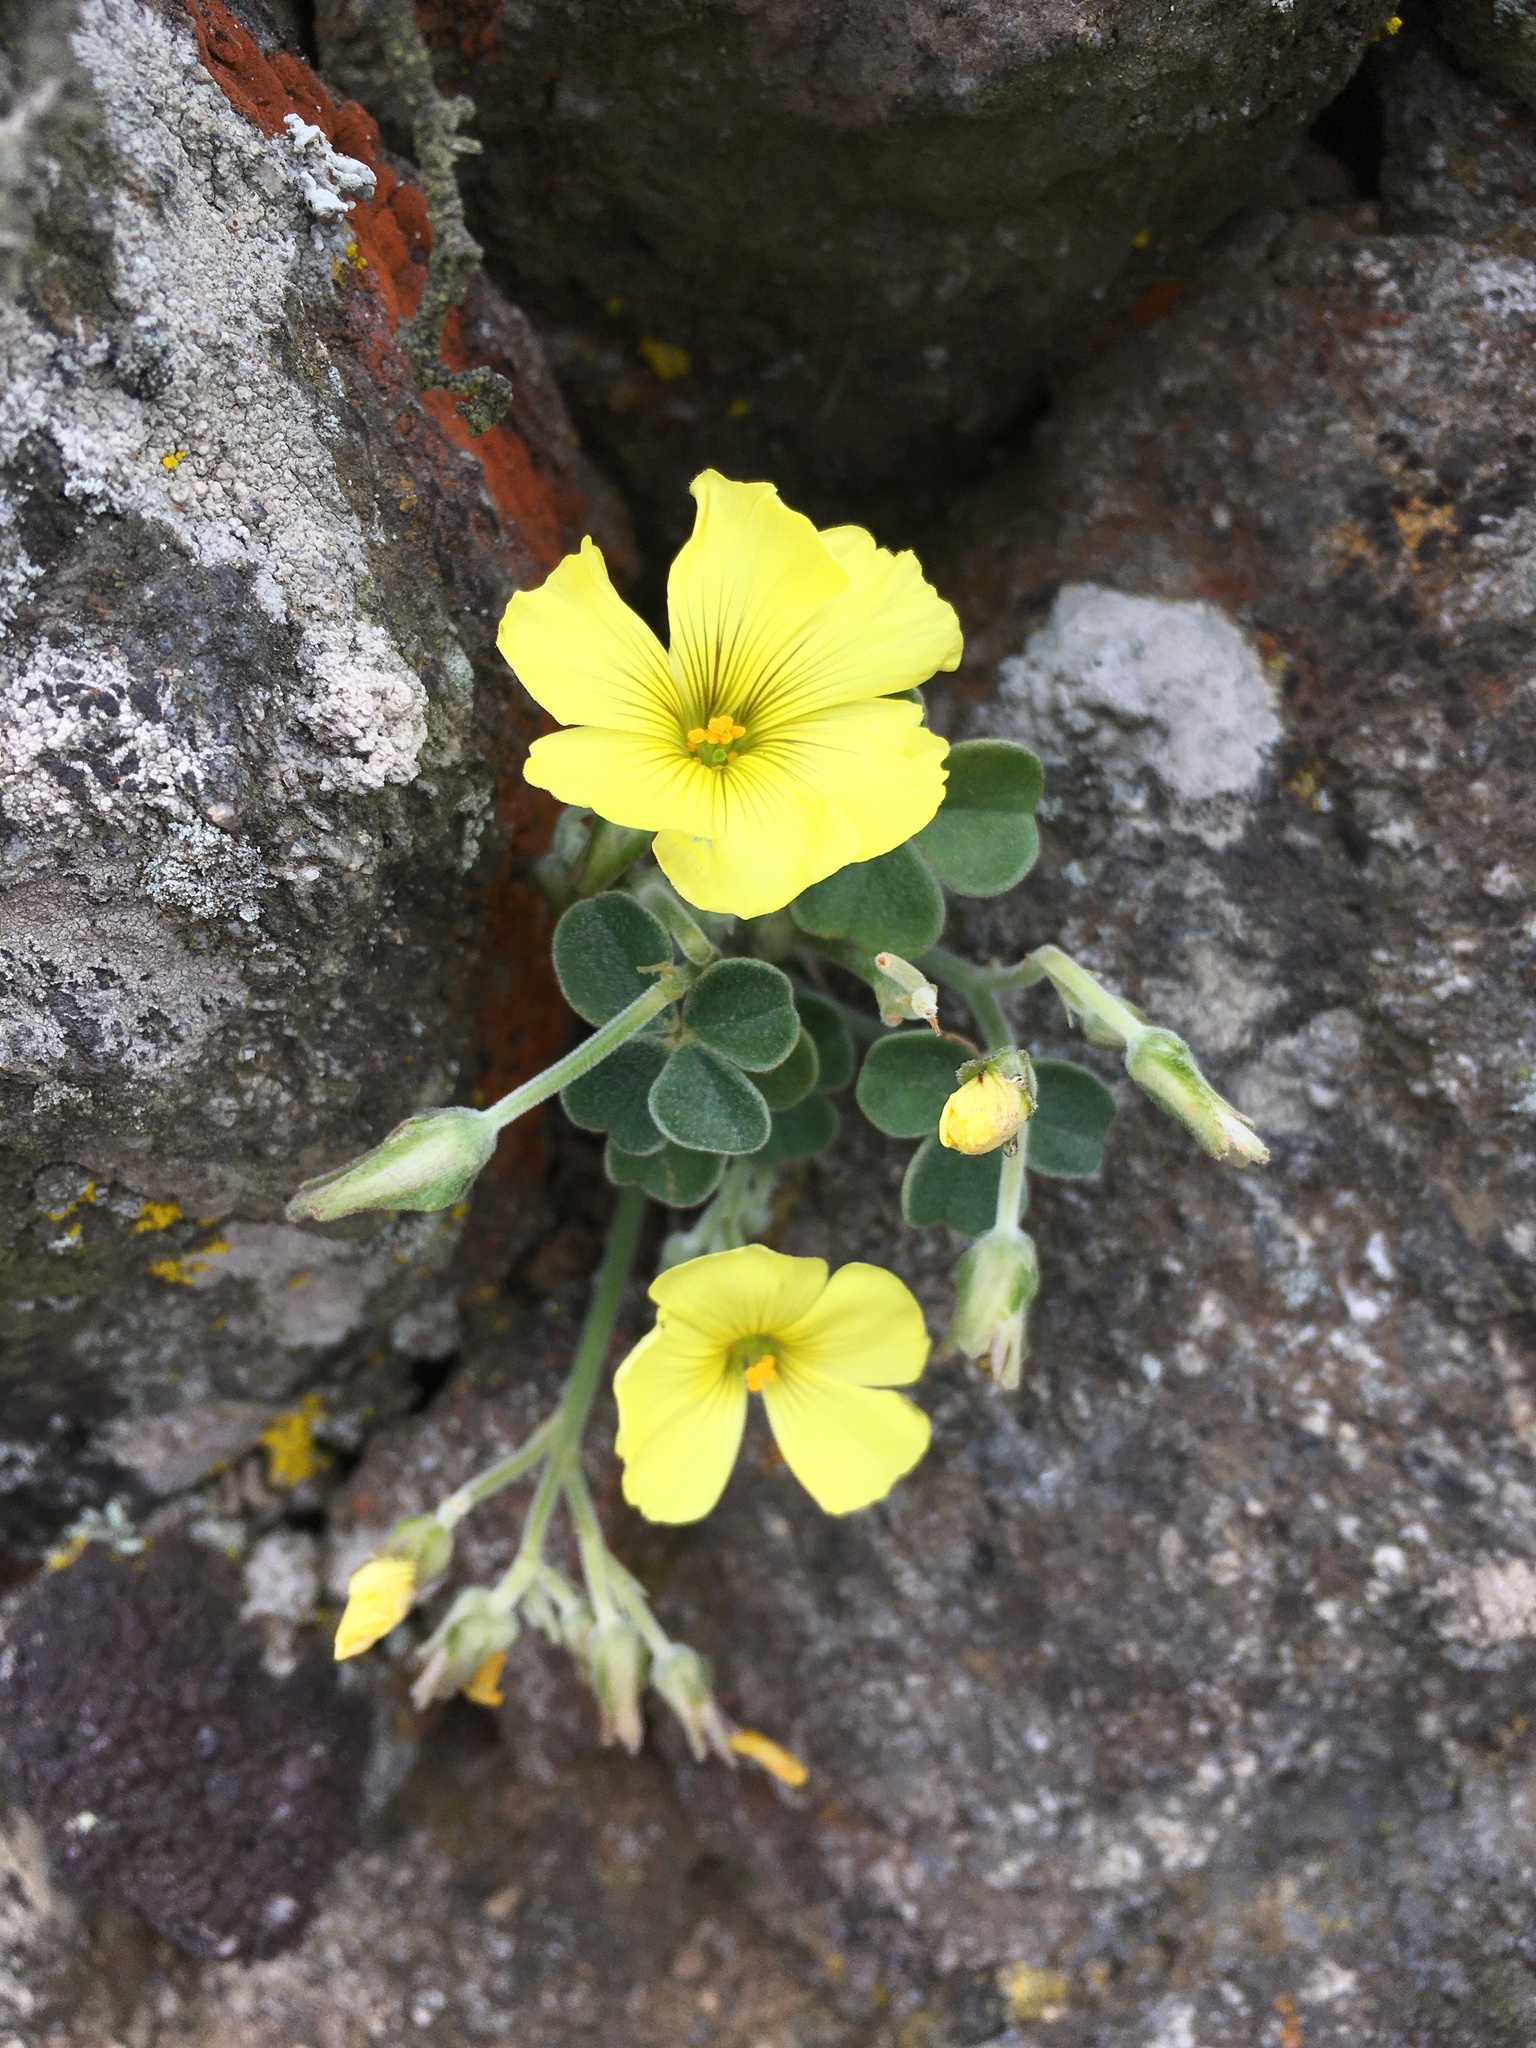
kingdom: Plantae
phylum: Tracheophyta
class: Magnoliopsida
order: Oxalidales
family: Oxalidaceae
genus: Oxalis
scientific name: Oxalis morenoensis
